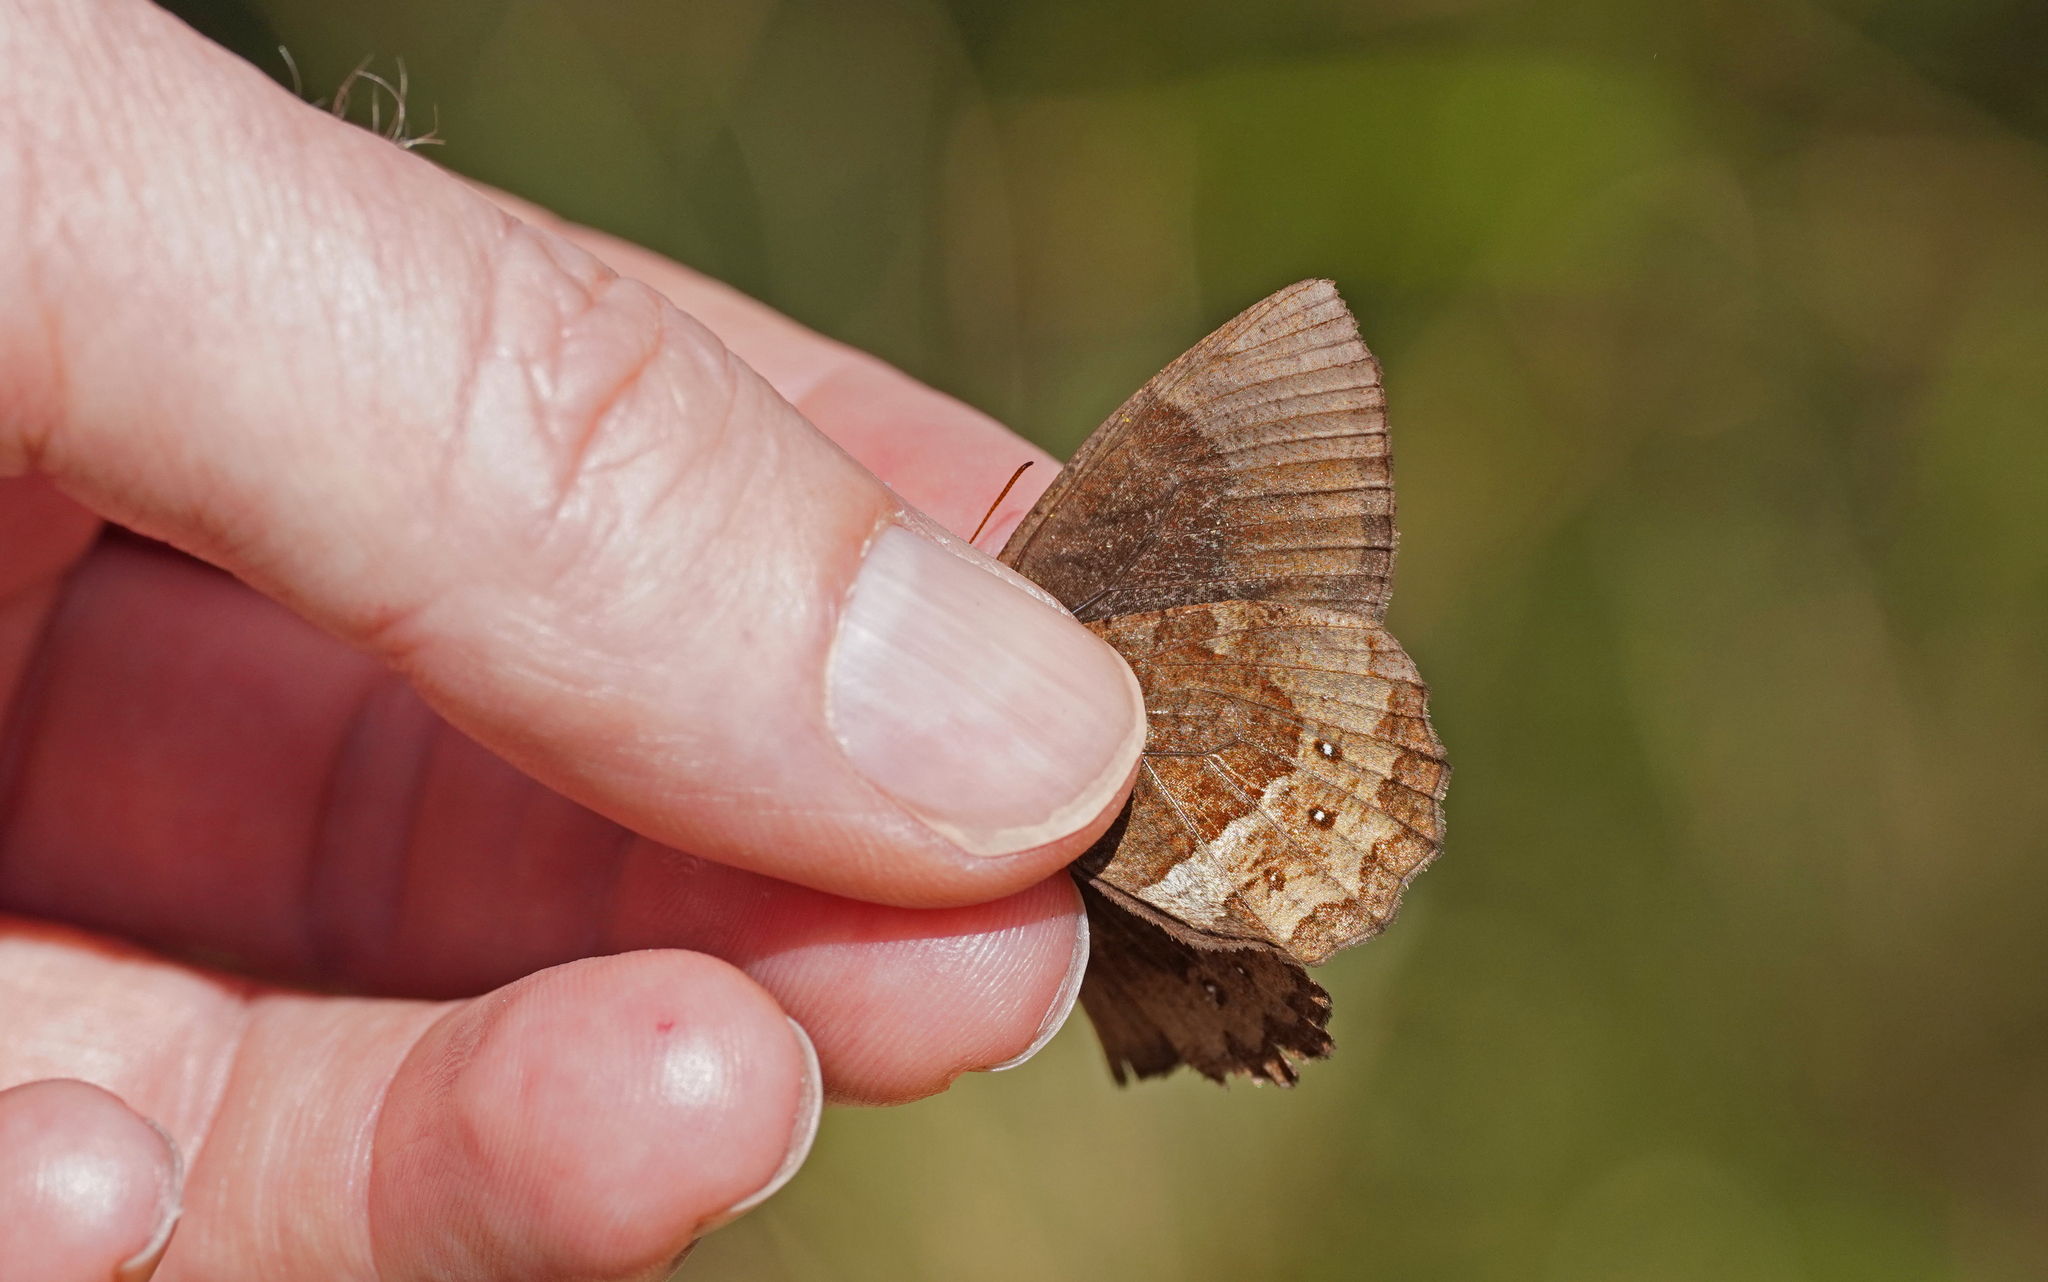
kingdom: Animalia
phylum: Arthropoda
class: Insecta
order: Lepidoptera
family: Nymphalidae
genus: Pedaliodes
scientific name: Pedaliodes phazania
